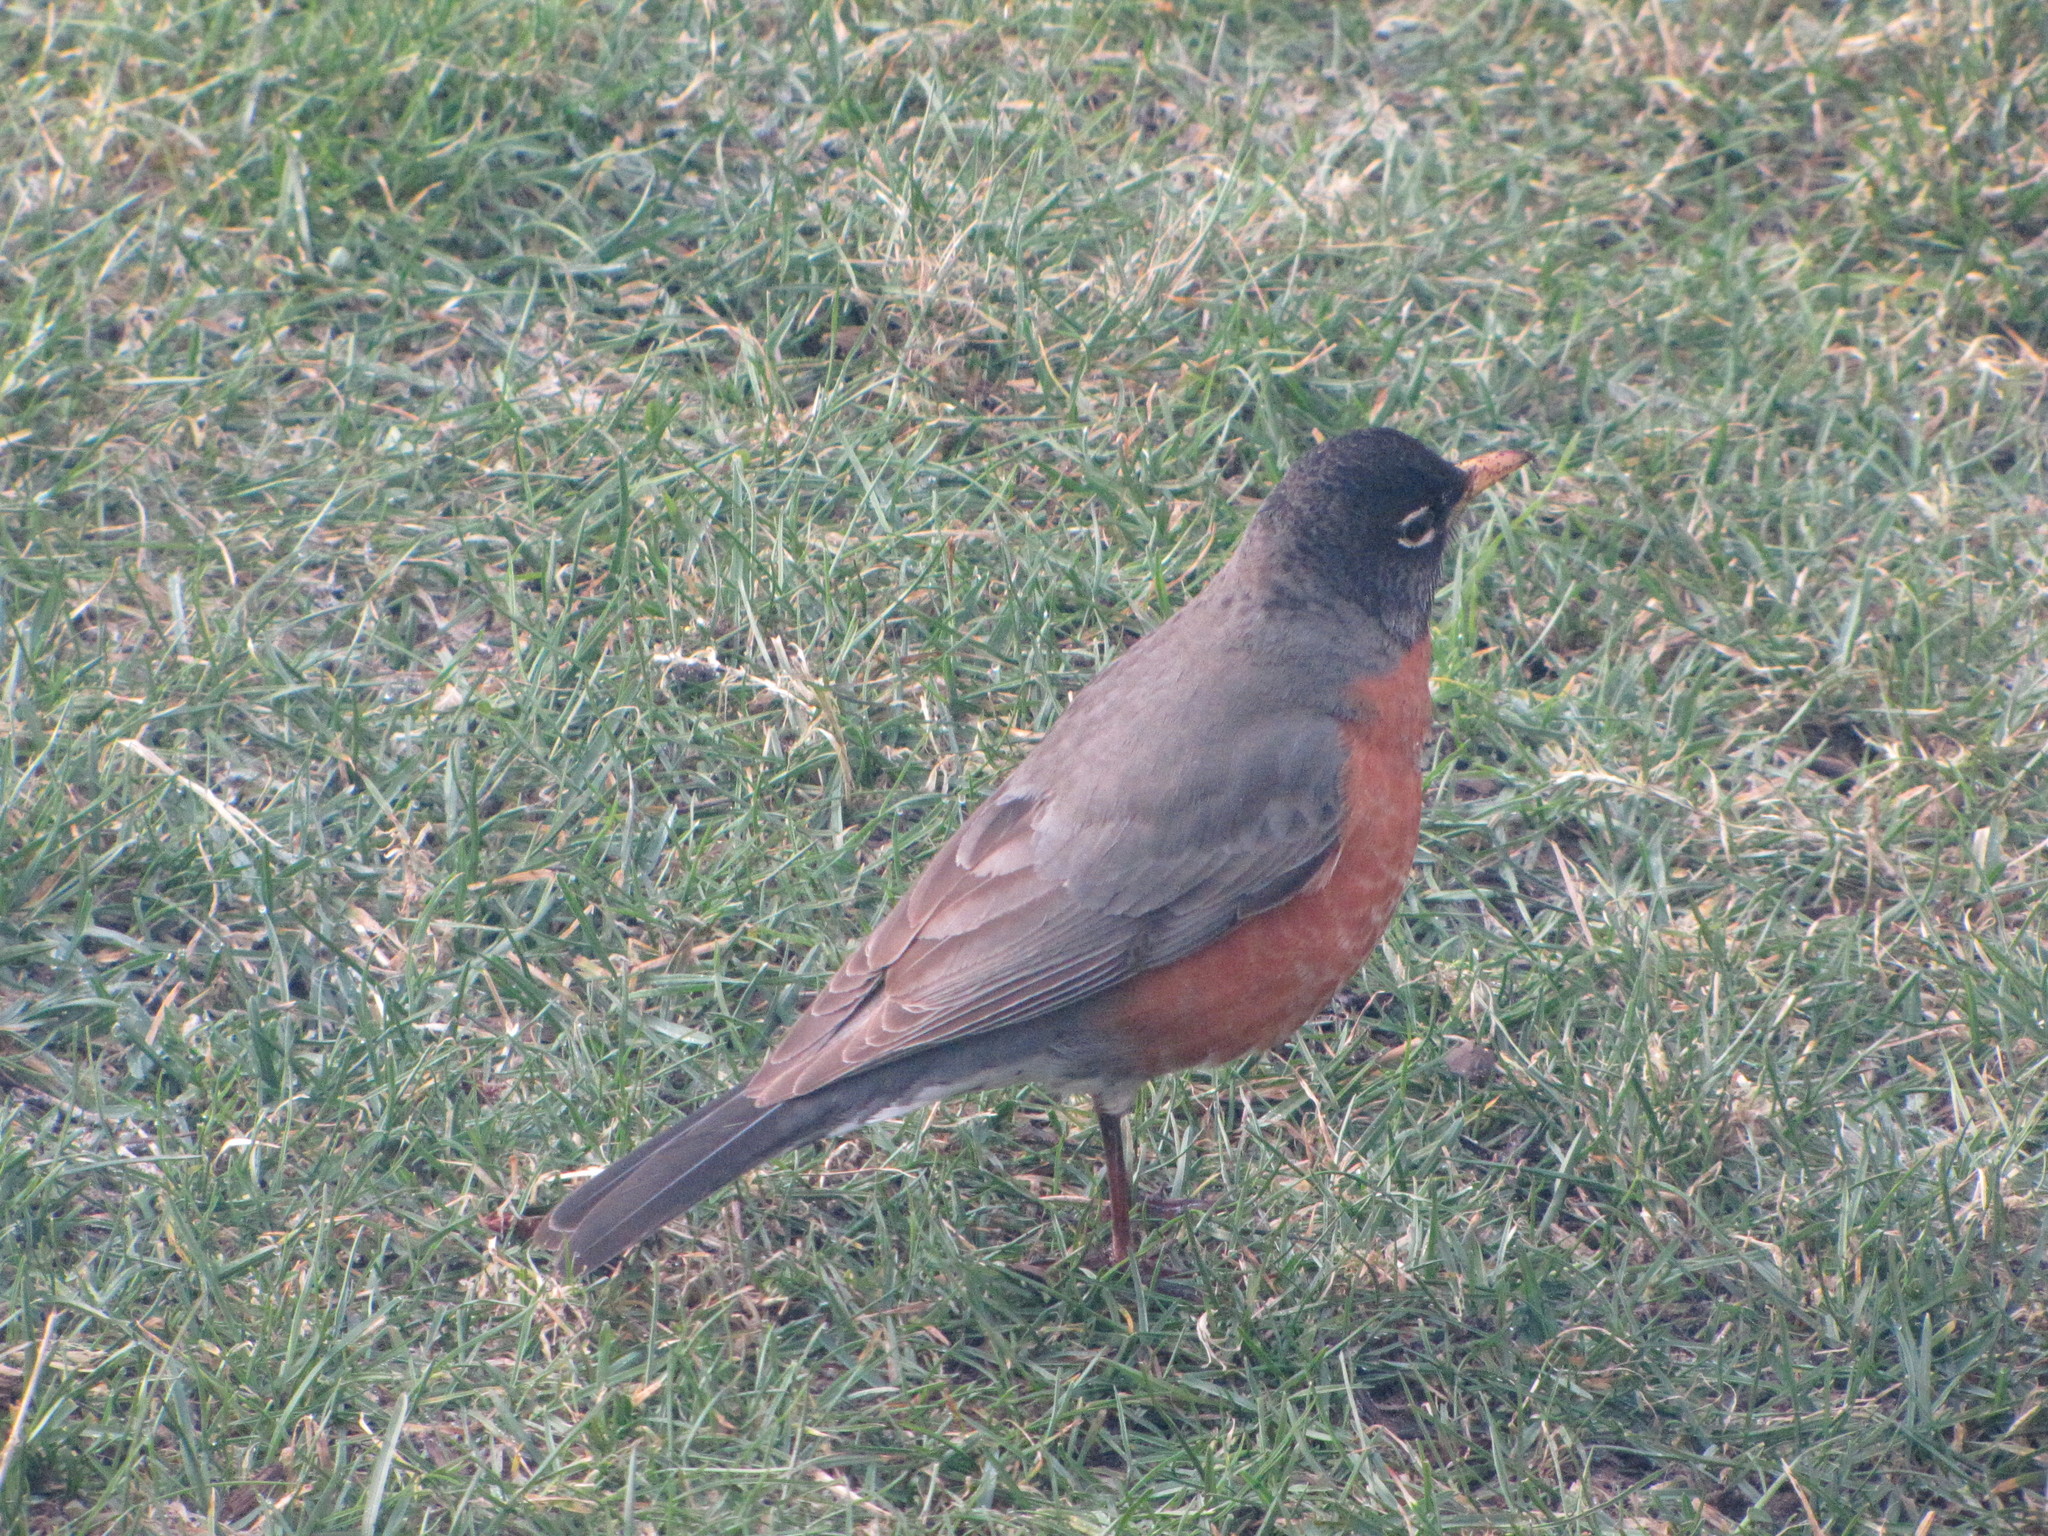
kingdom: Animalia
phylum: Chordata
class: Aves
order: Passeriformes
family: Turdidae
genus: Turdus
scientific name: Turdus migratorius
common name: American robin
